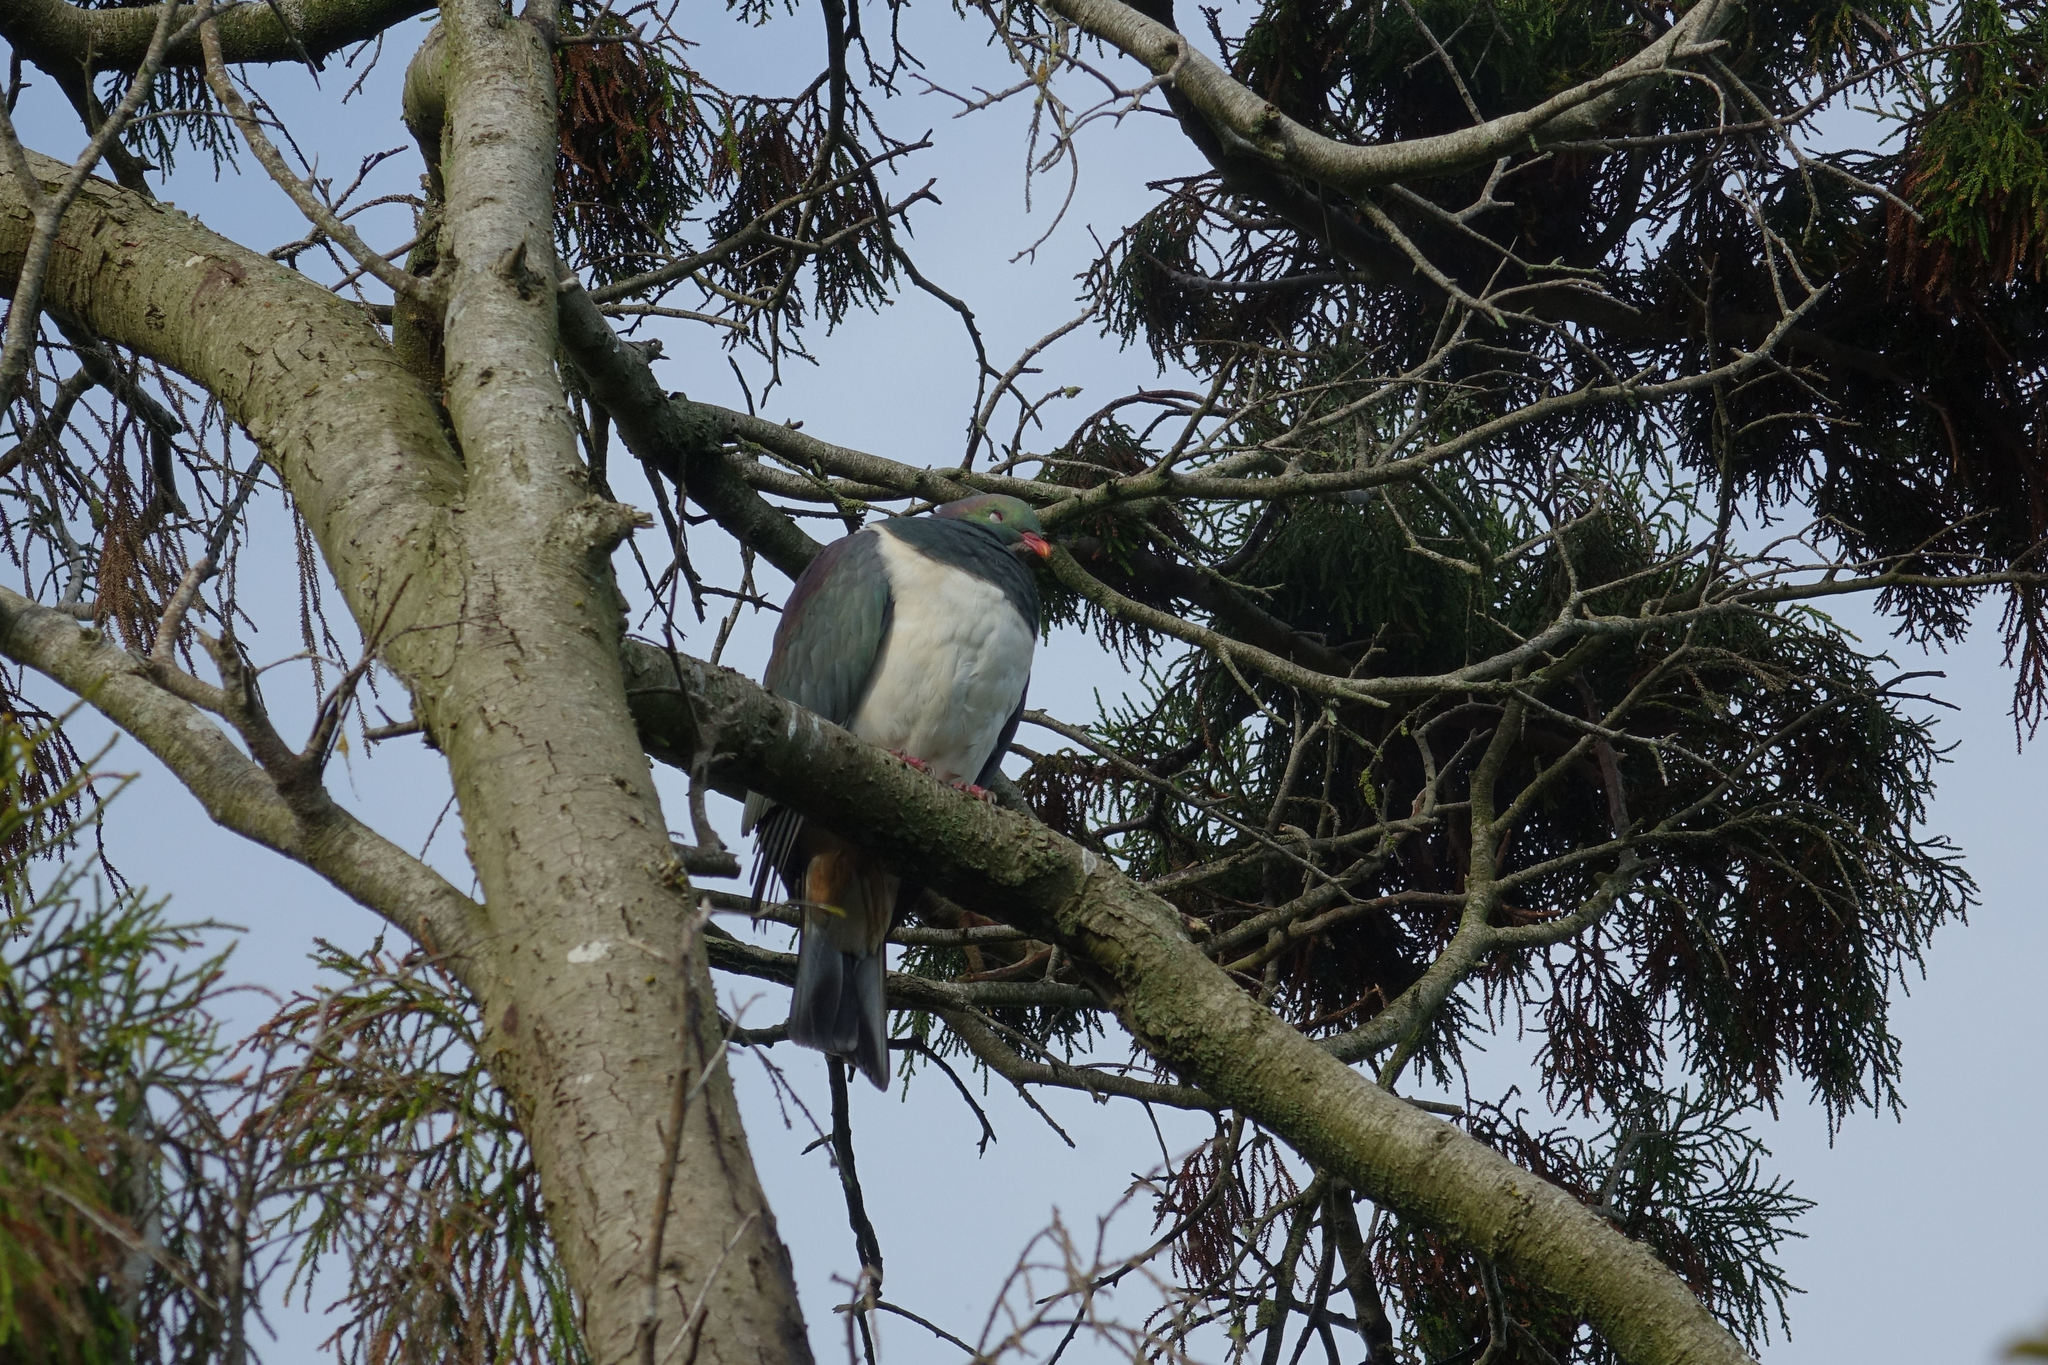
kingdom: Animalia
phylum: Chordata
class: Aves
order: Columbiformes
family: Columbidae
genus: Hemiphaga
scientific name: Hemiphaga novaeseelandiae
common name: New zealand pigeon
